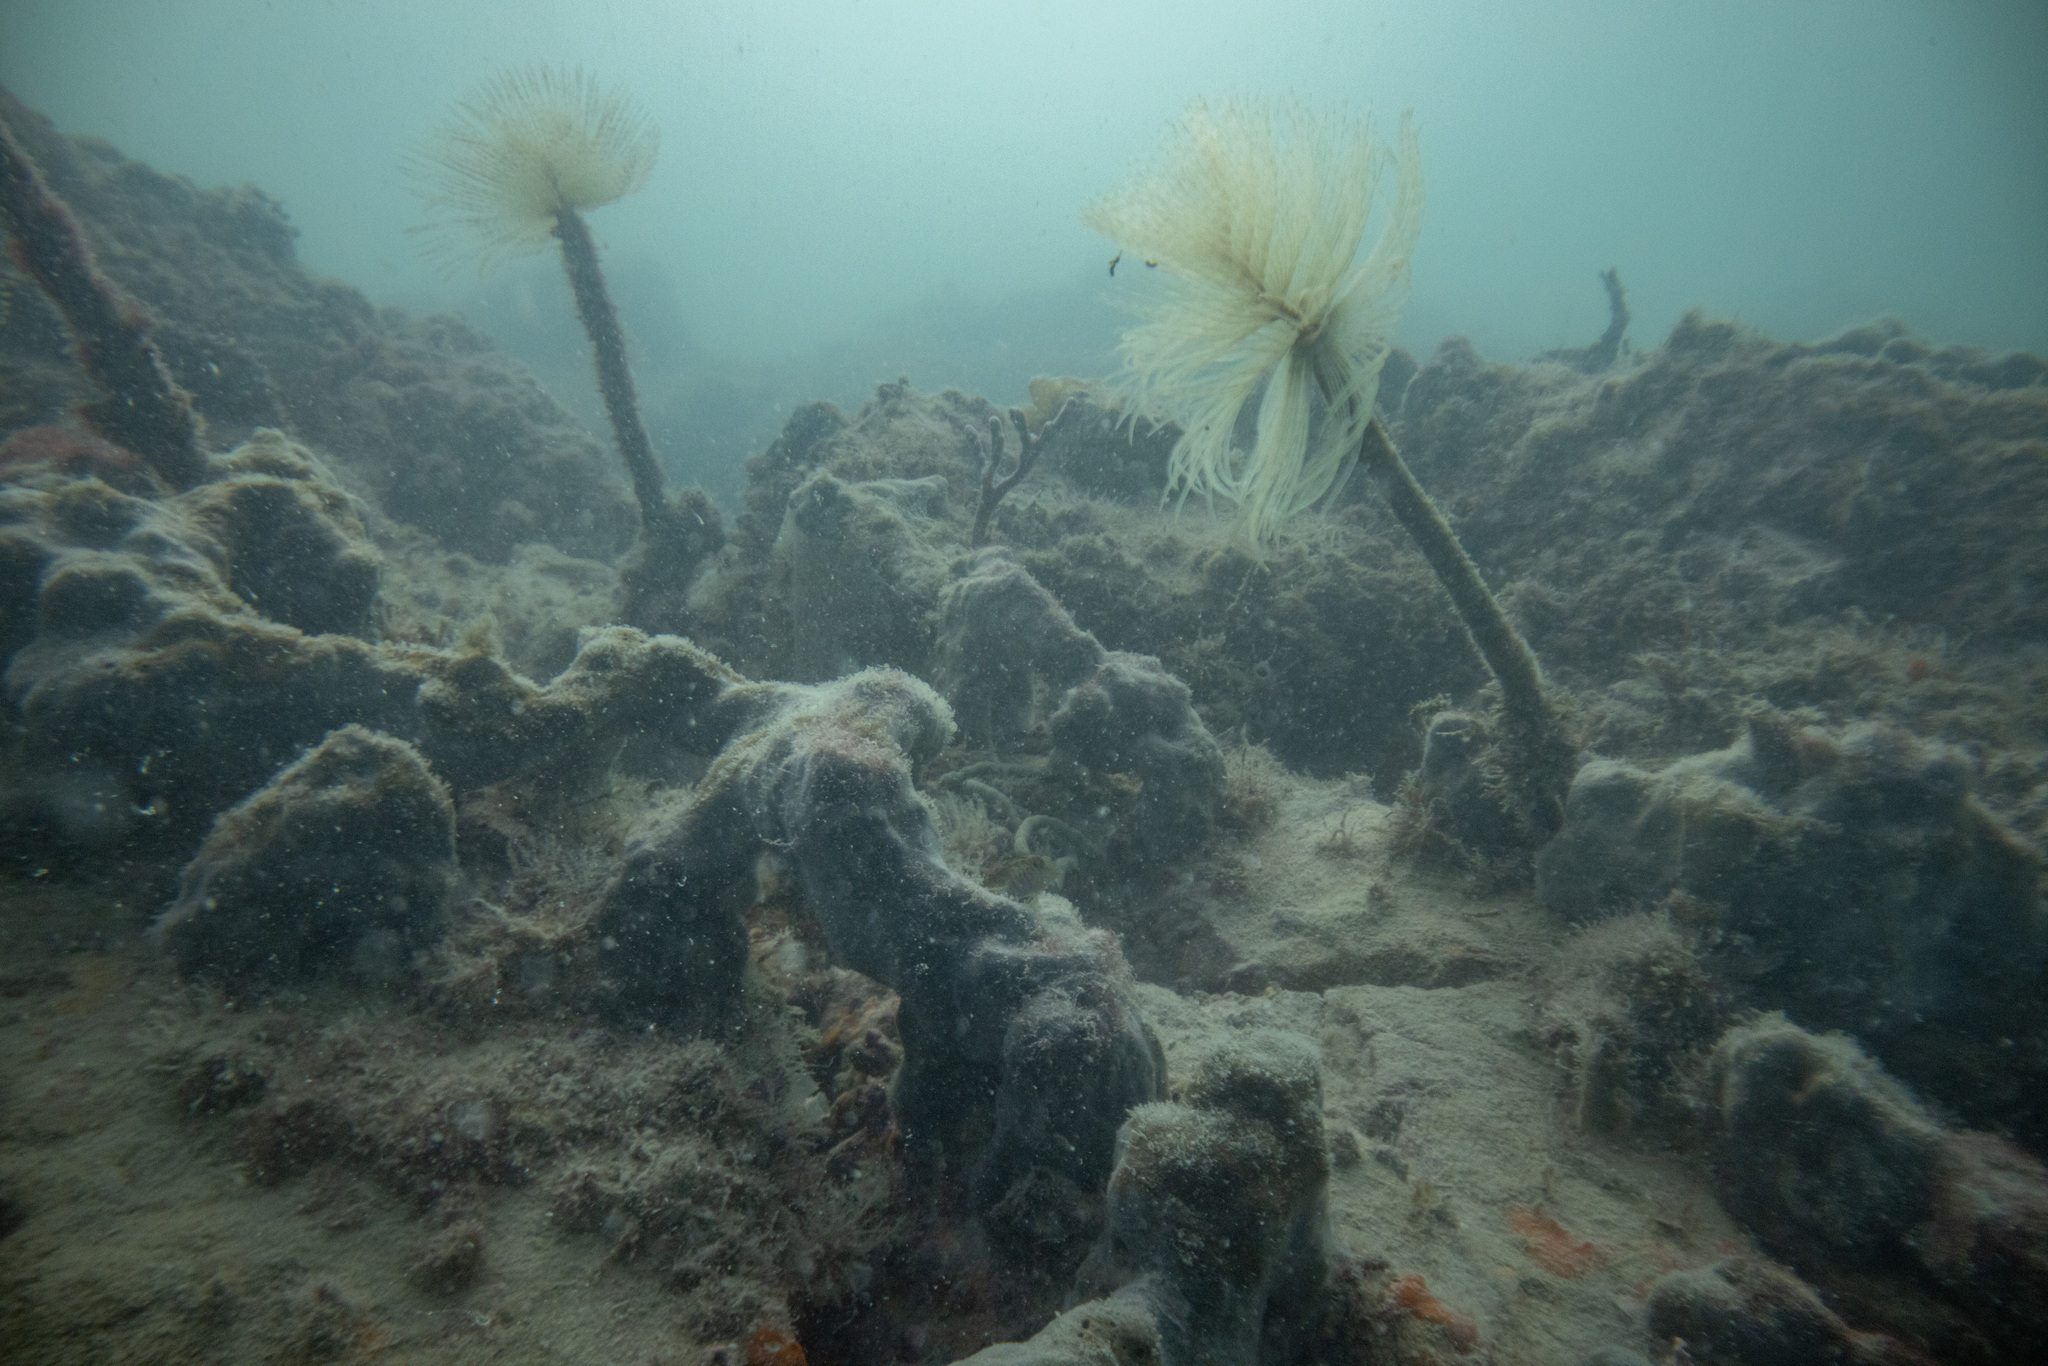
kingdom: Animalia
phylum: Annelida
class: Polychaeta
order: Sabellida
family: Sabellidae
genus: Sabella
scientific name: Sabella spallanzanii
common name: Feather duster worm
